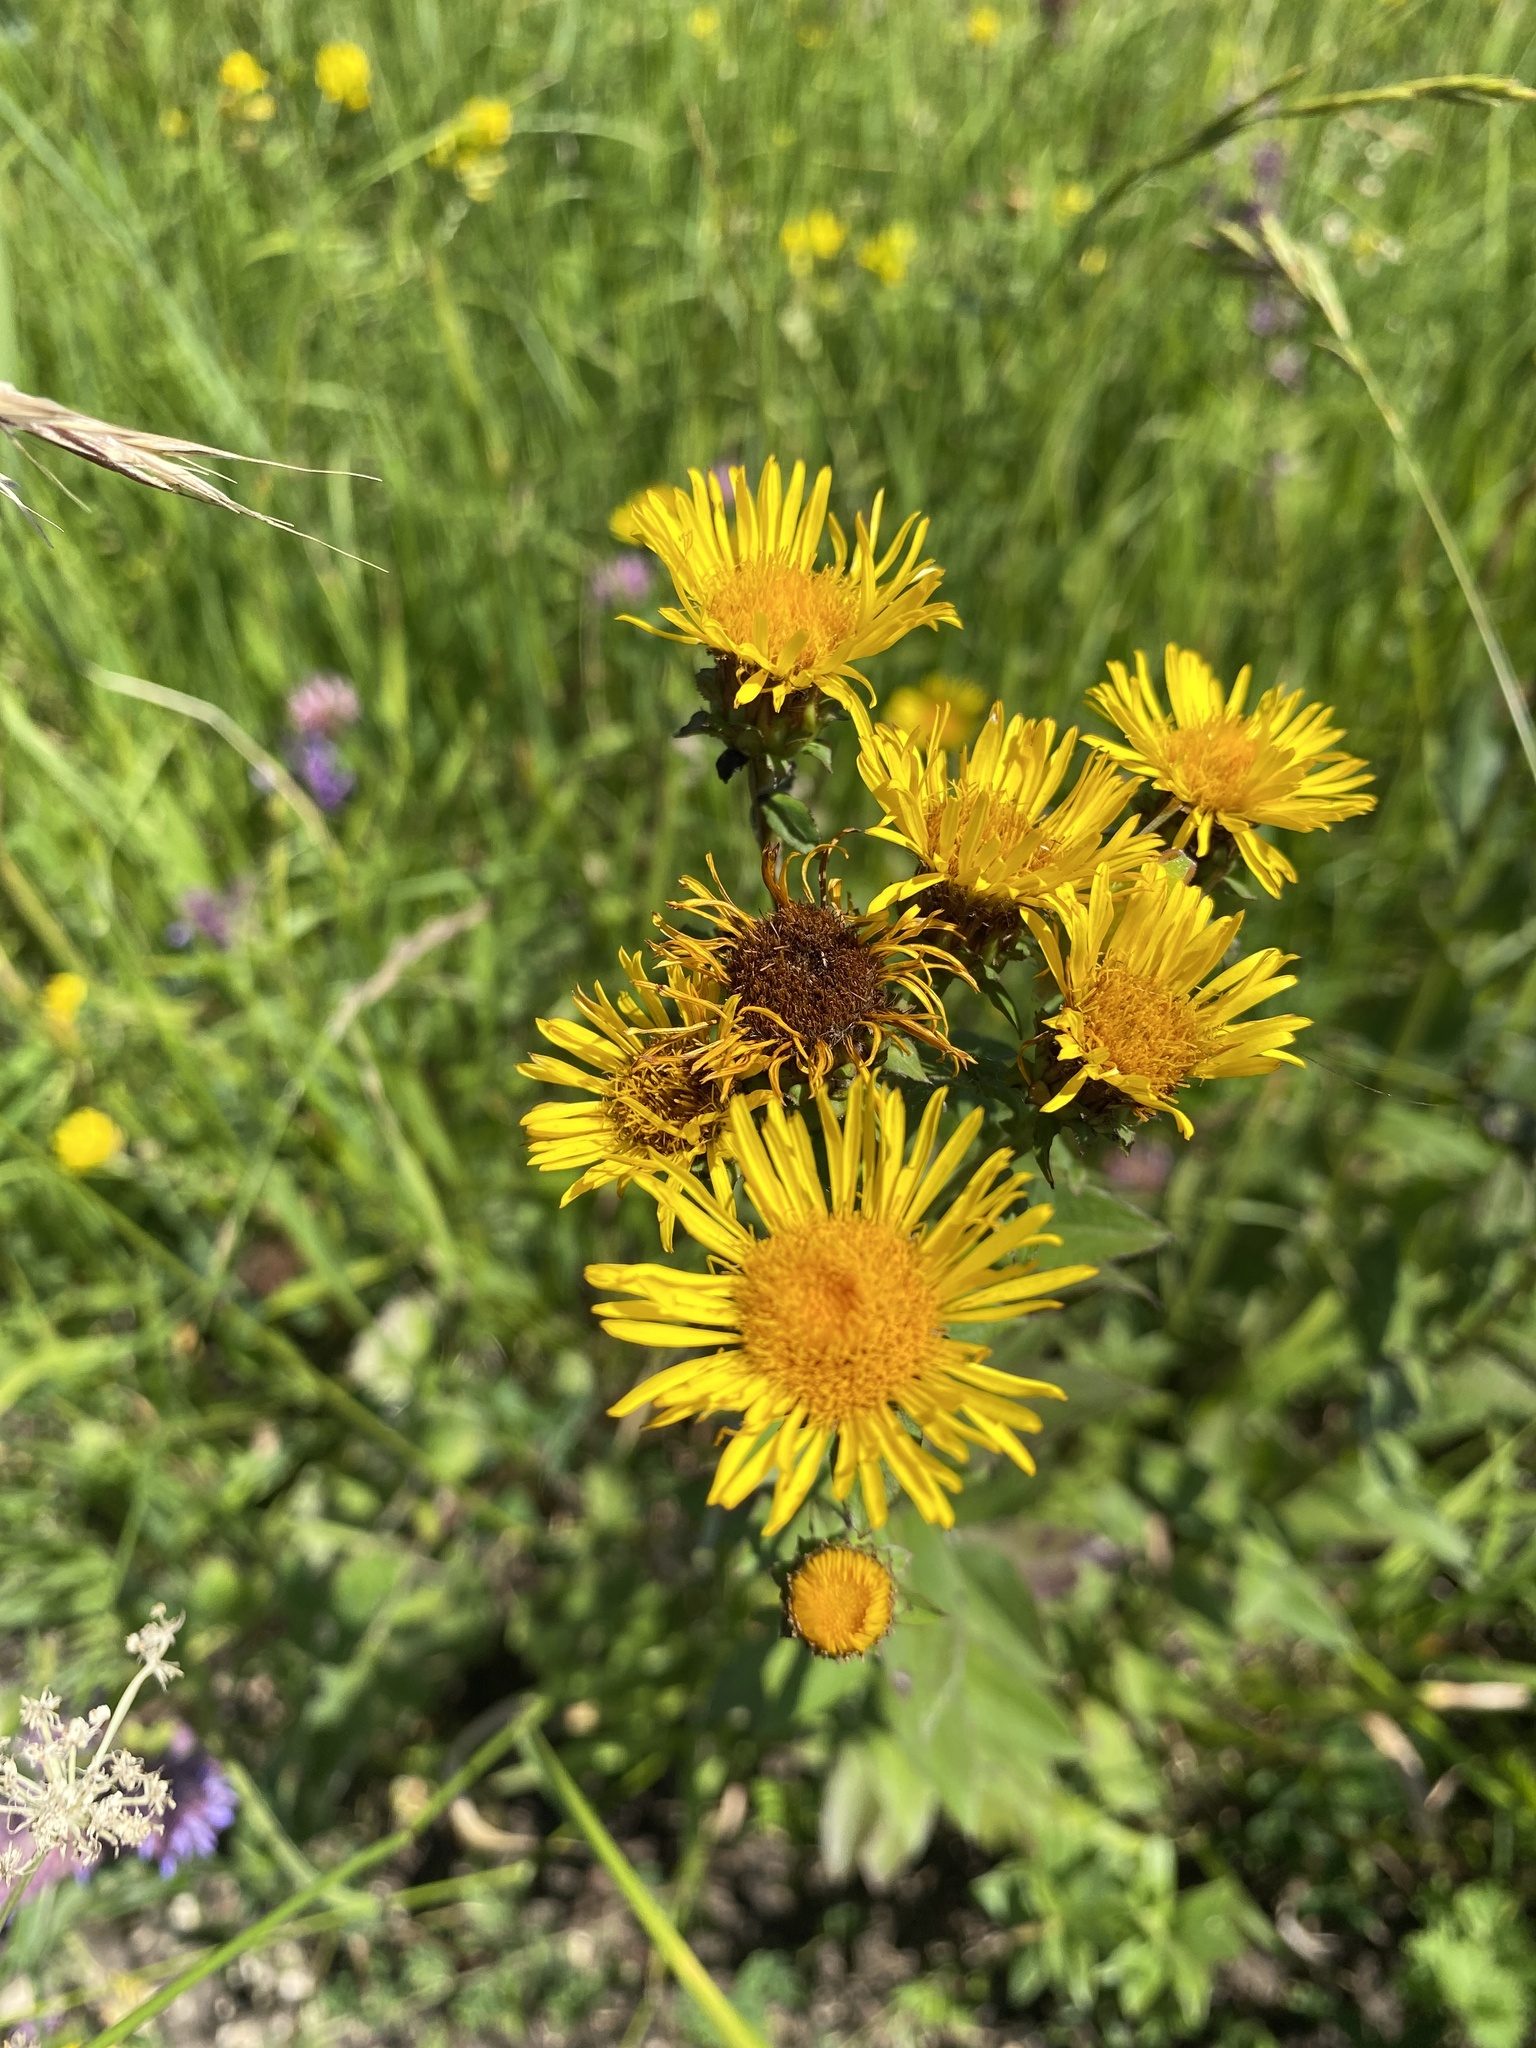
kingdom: Plantae
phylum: Tracheophyta
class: Magnoliopsida
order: Asterales
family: Asteraceae
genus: Pentanema
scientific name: Pentanema asperum
